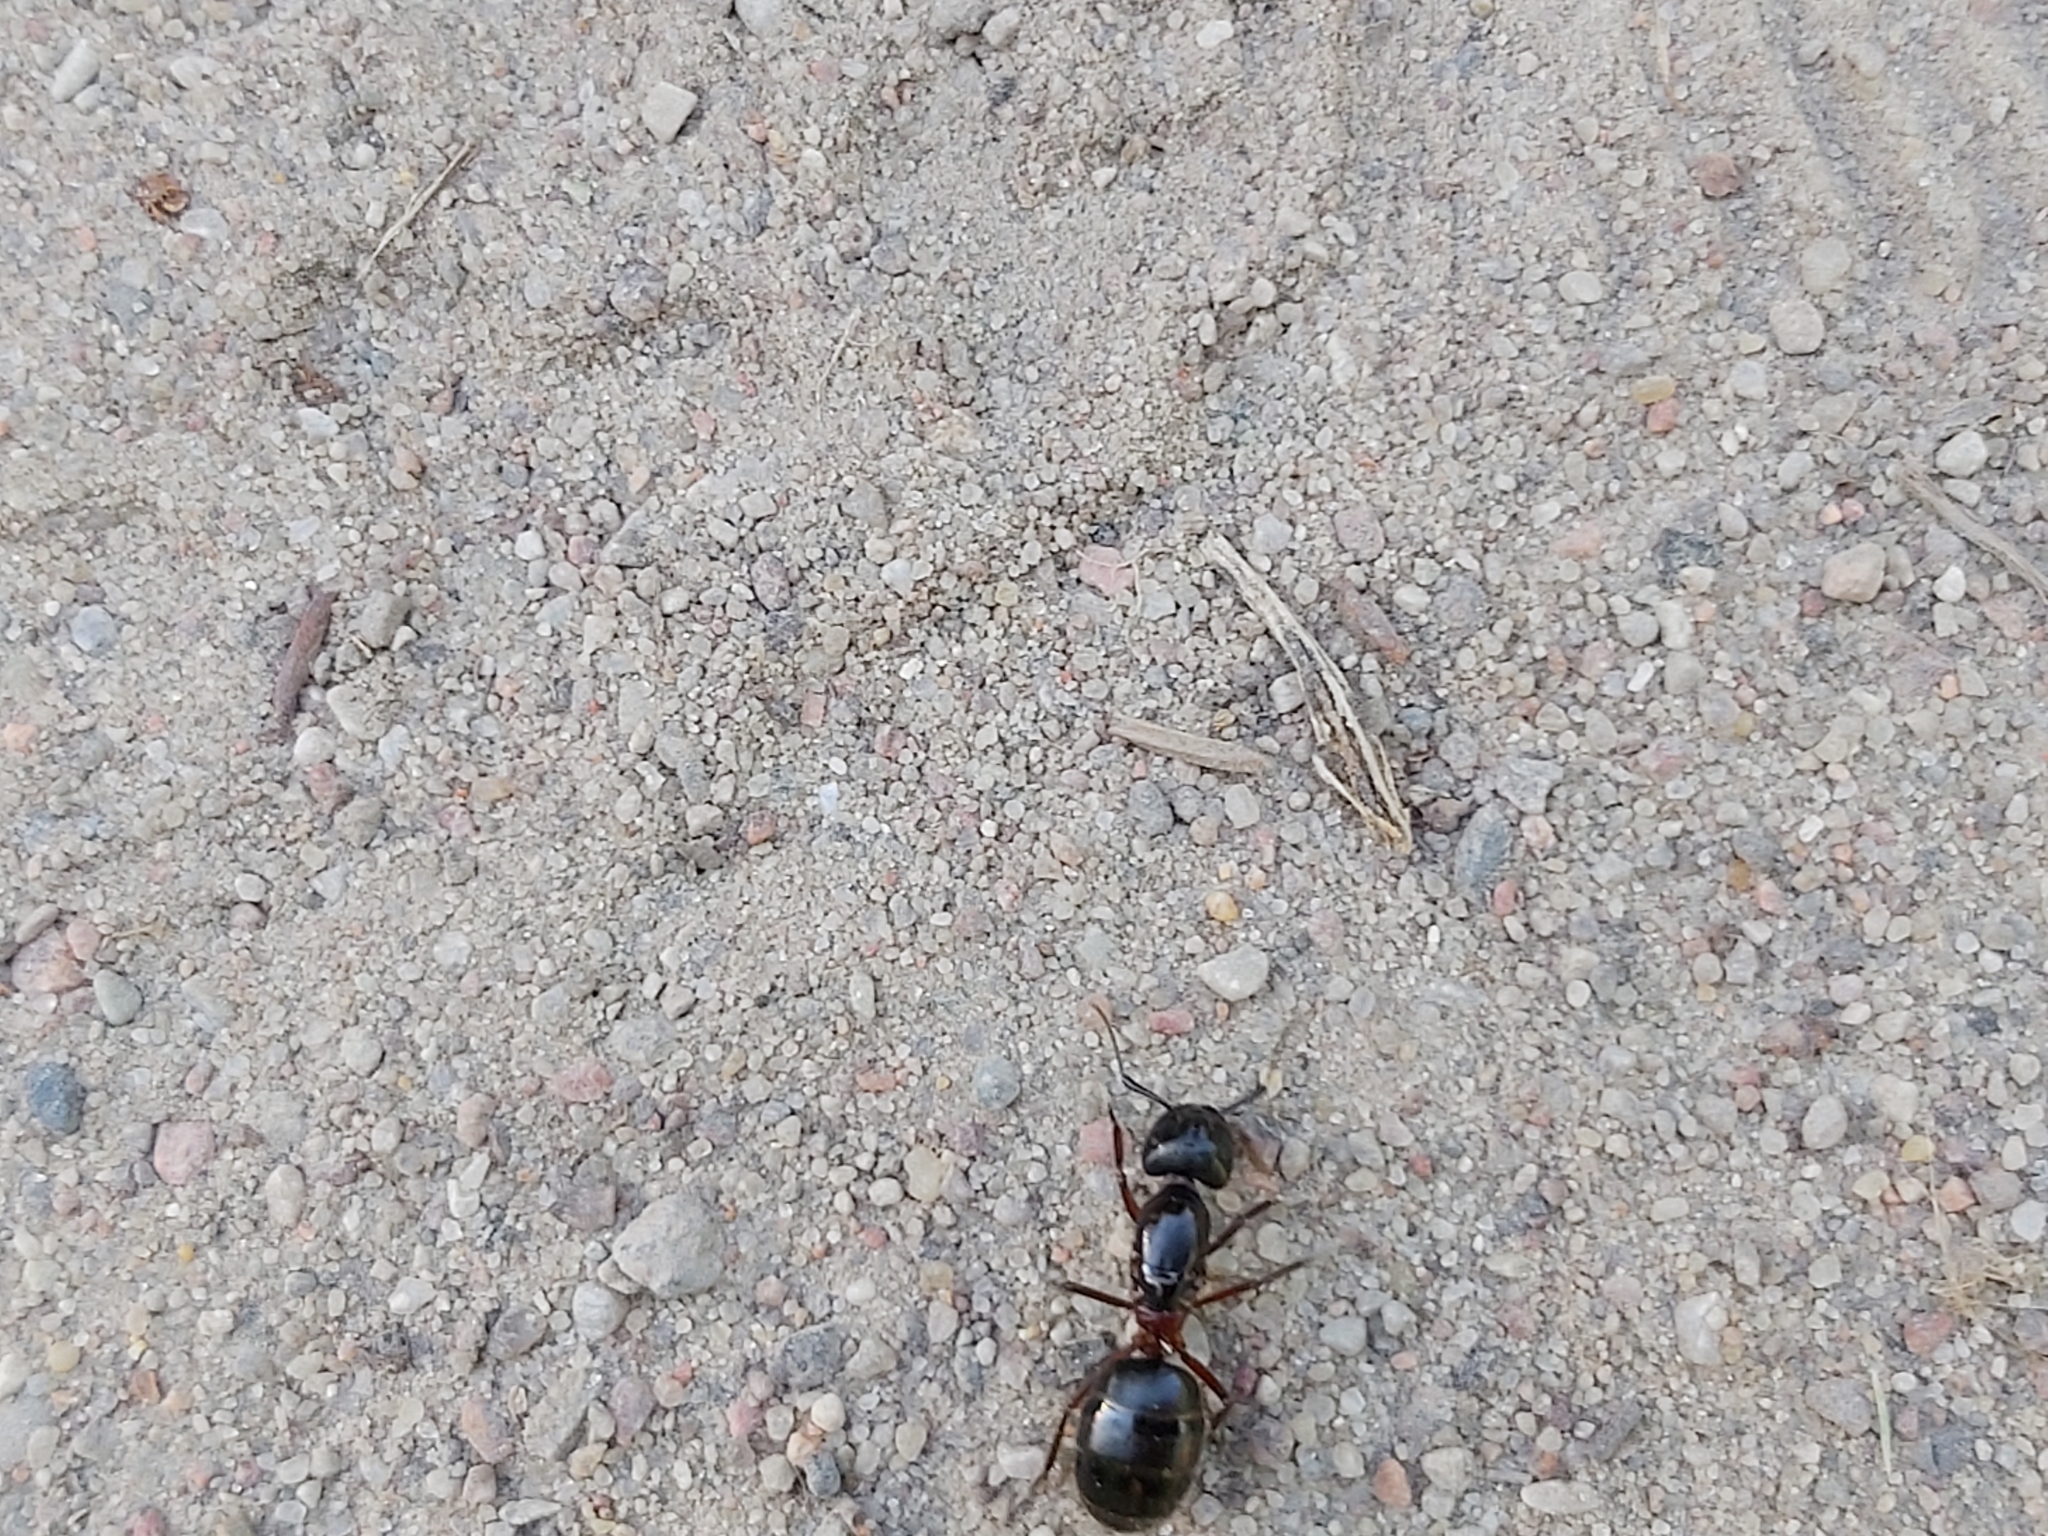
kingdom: Animalia
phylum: Arthropoda
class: Insecta
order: Hymenoptera
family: Formicidae
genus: Camponotus
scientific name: Camponotus herculeanus
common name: Hercules ant
